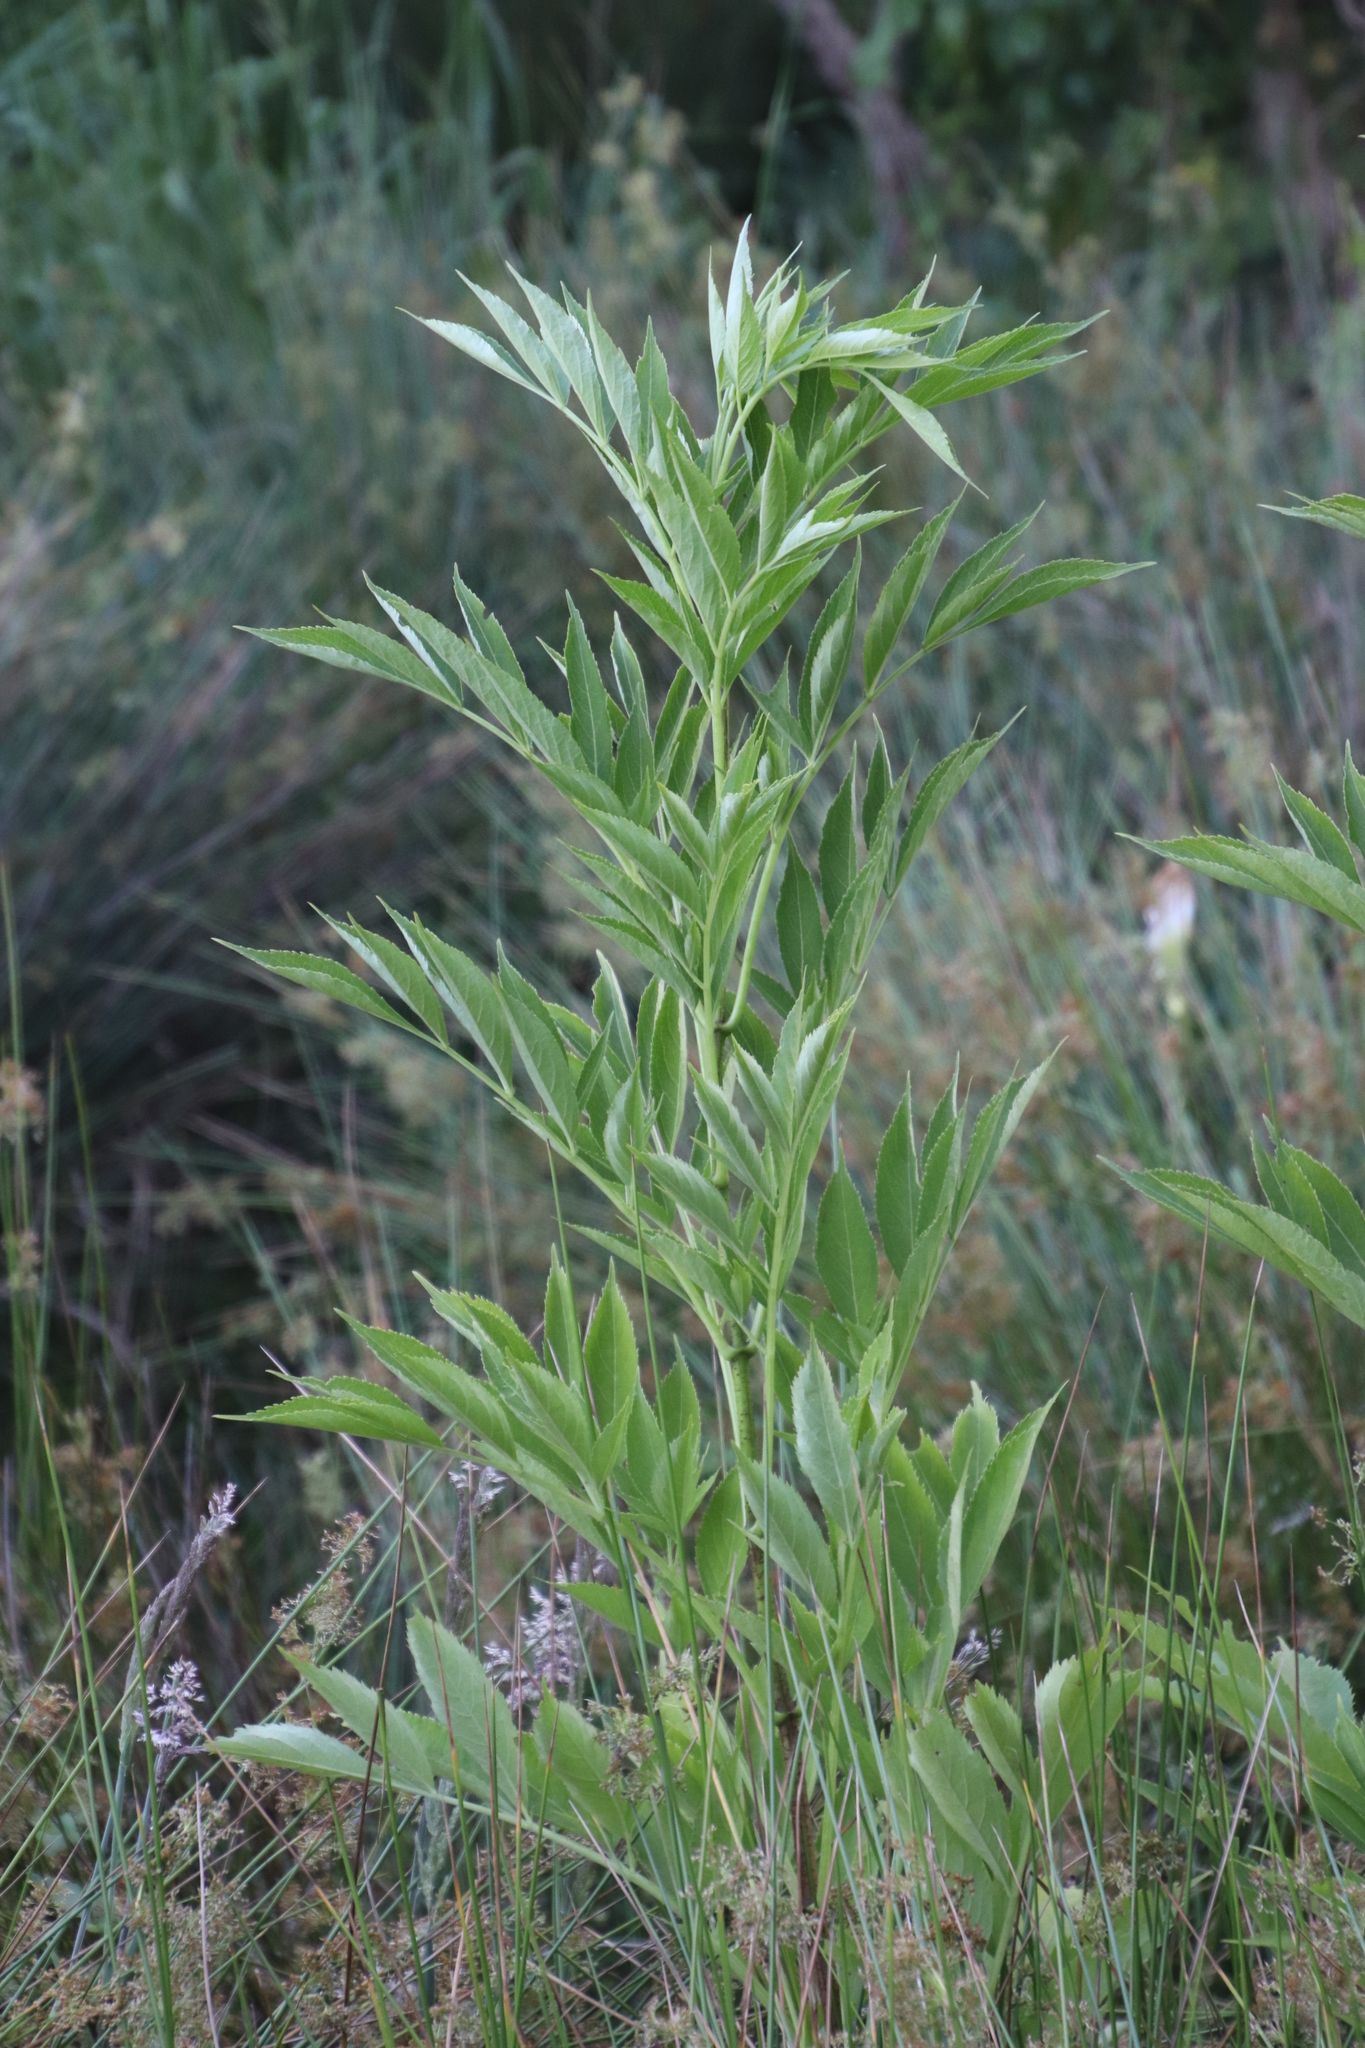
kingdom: Plantae
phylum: Tracheophyta
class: Magnoliopsida
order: Dipsacales
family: Viburnaceae
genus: Sambucus
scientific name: Sambucus canadensis
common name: American elder
